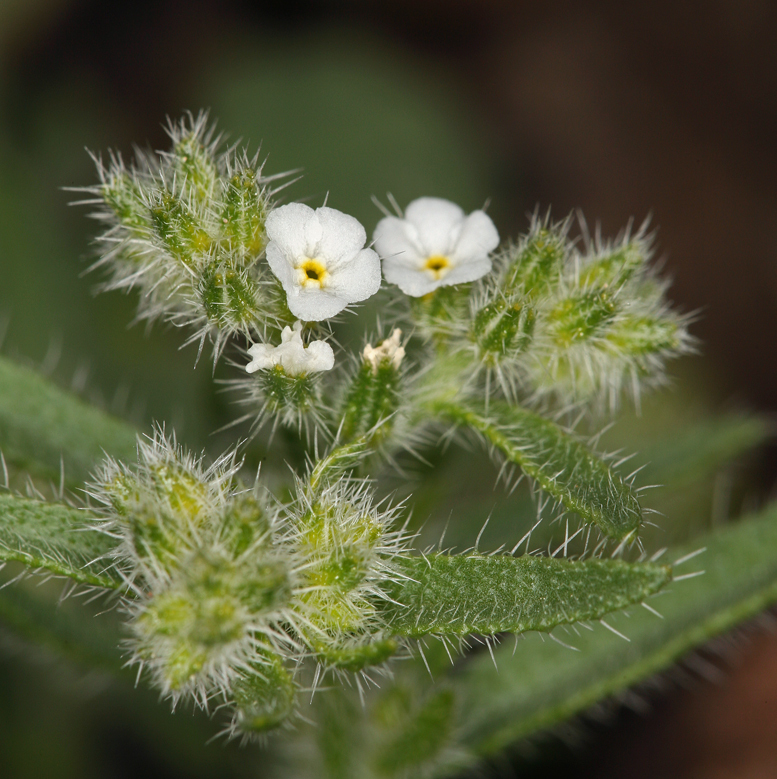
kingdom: Plantae
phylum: Tracheophyta
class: Magnoliopsida
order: Boraginales
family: Boraginaceae
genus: Johnstonella
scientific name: Johnstonella inaequata
